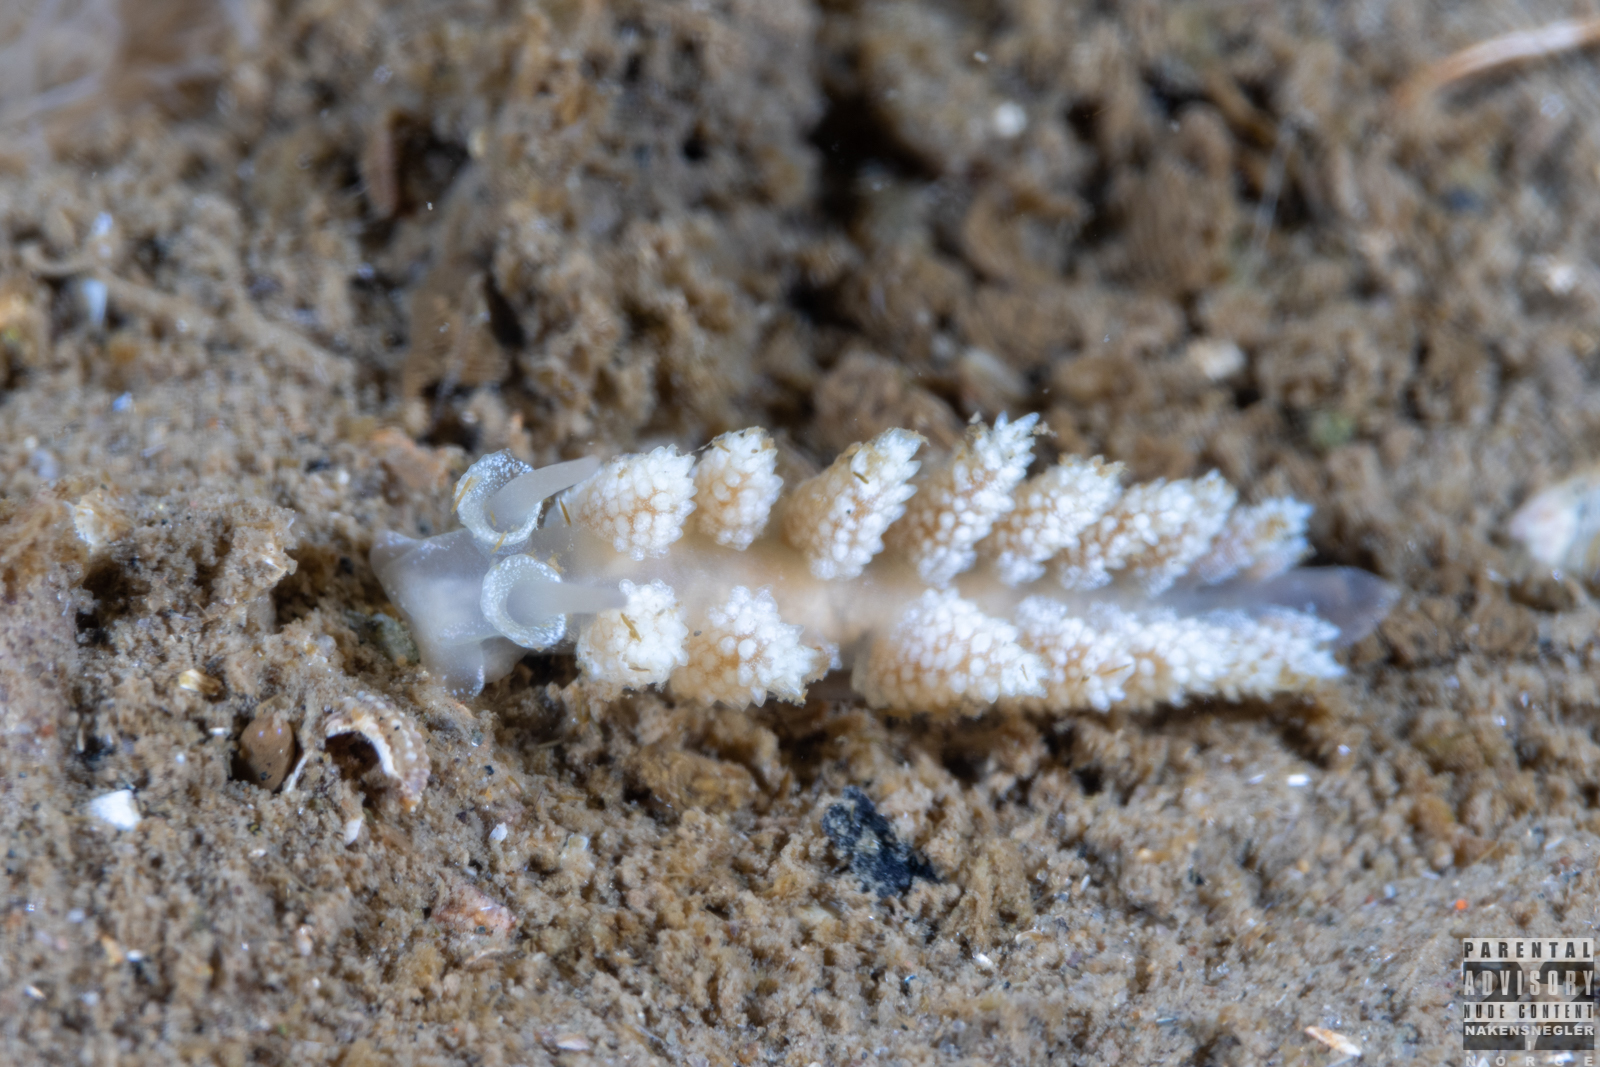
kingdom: Animalia
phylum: Mollusca
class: Gastropoda
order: Nudibranchia
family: Dotidae
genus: Doto
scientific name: Doto fragilis
